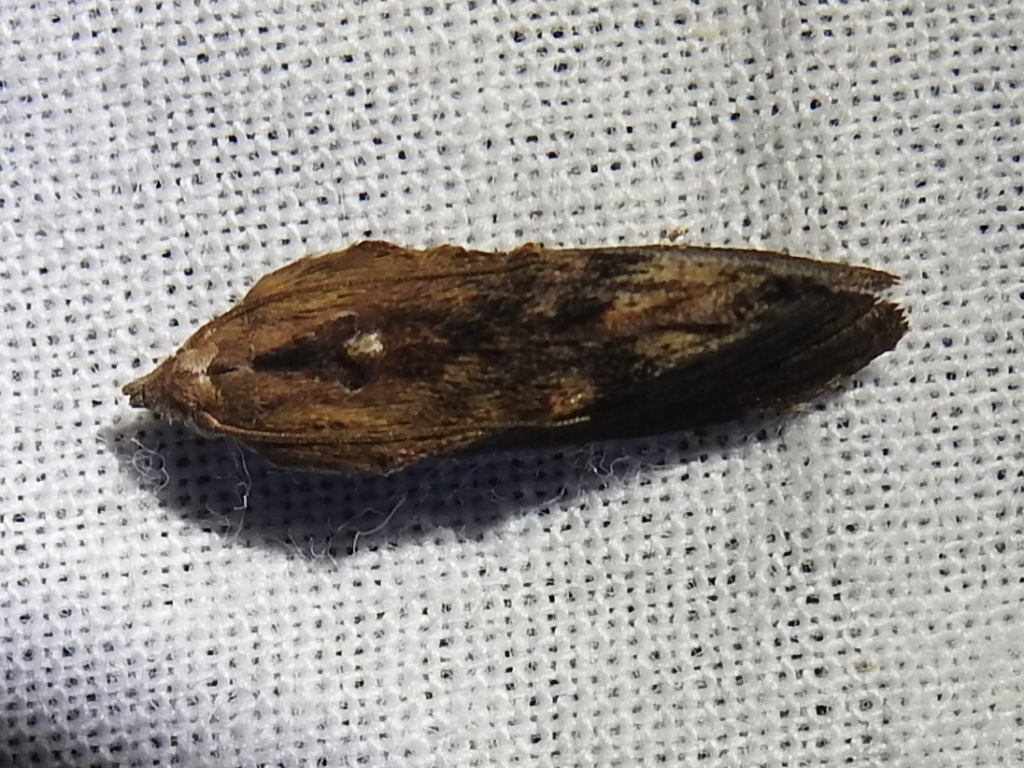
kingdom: Animalia
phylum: Arthropoda
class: Insecta
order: Lepidoptera
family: Pyralidae
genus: Galleria
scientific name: Galleria mellonella
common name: Greater wax moth
